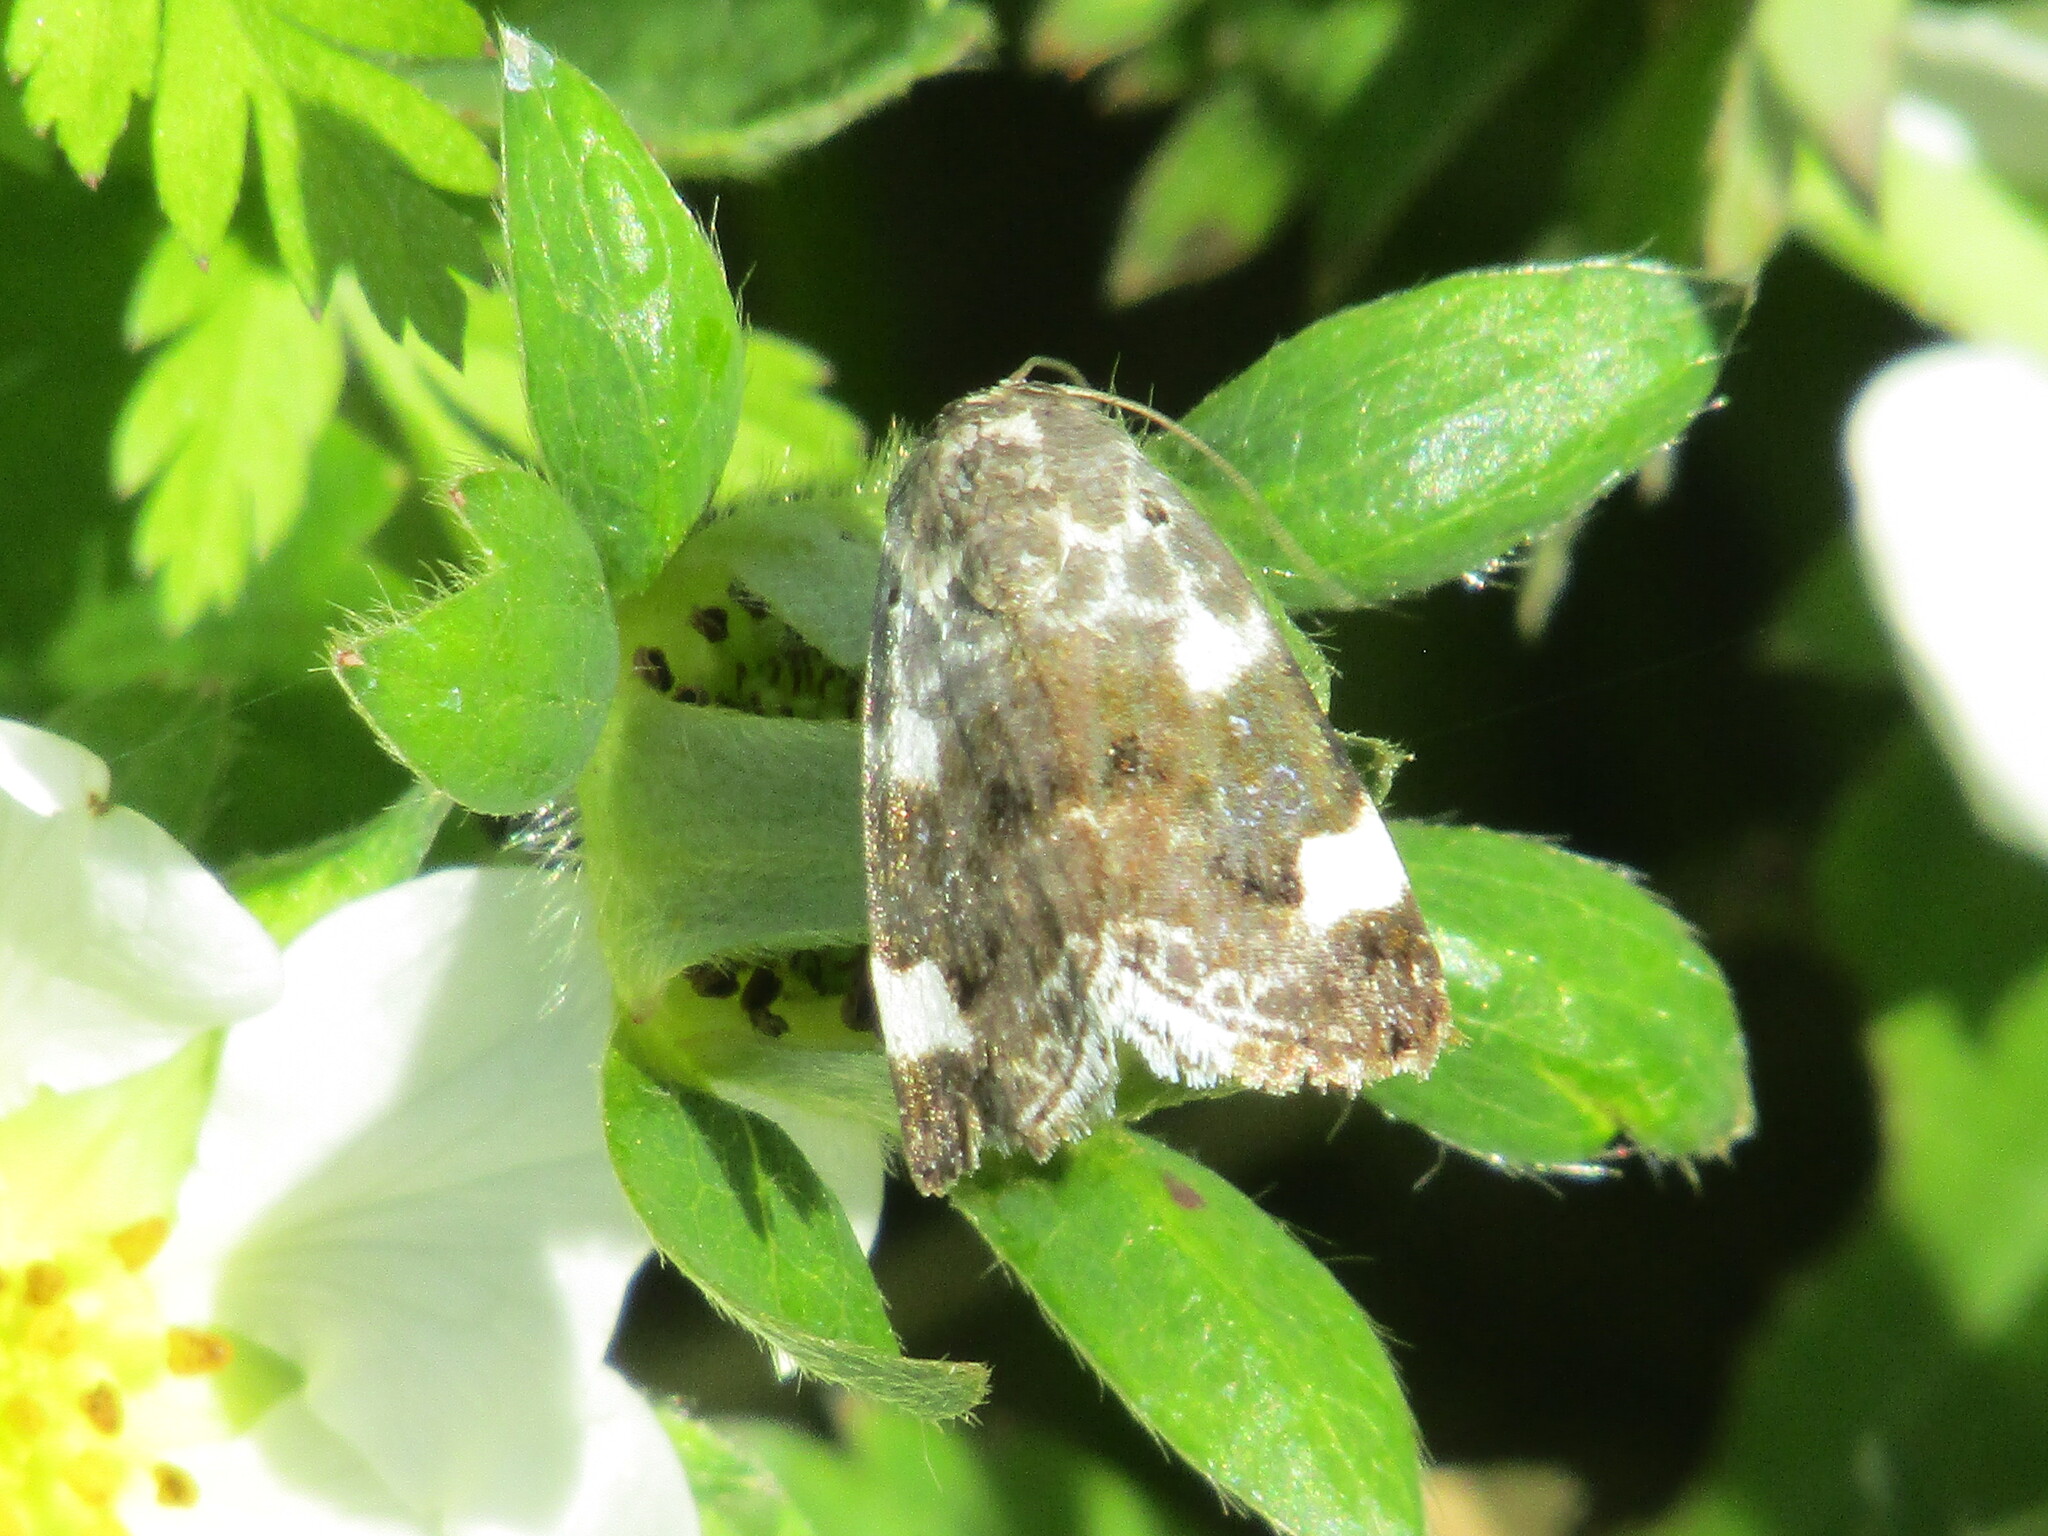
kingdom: Animalia
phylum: Arthropoda
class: Insecta
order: Lepidoptera
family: Noctuidae
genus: Acontia
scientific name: Acontia lucida
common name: Pale shoulder
